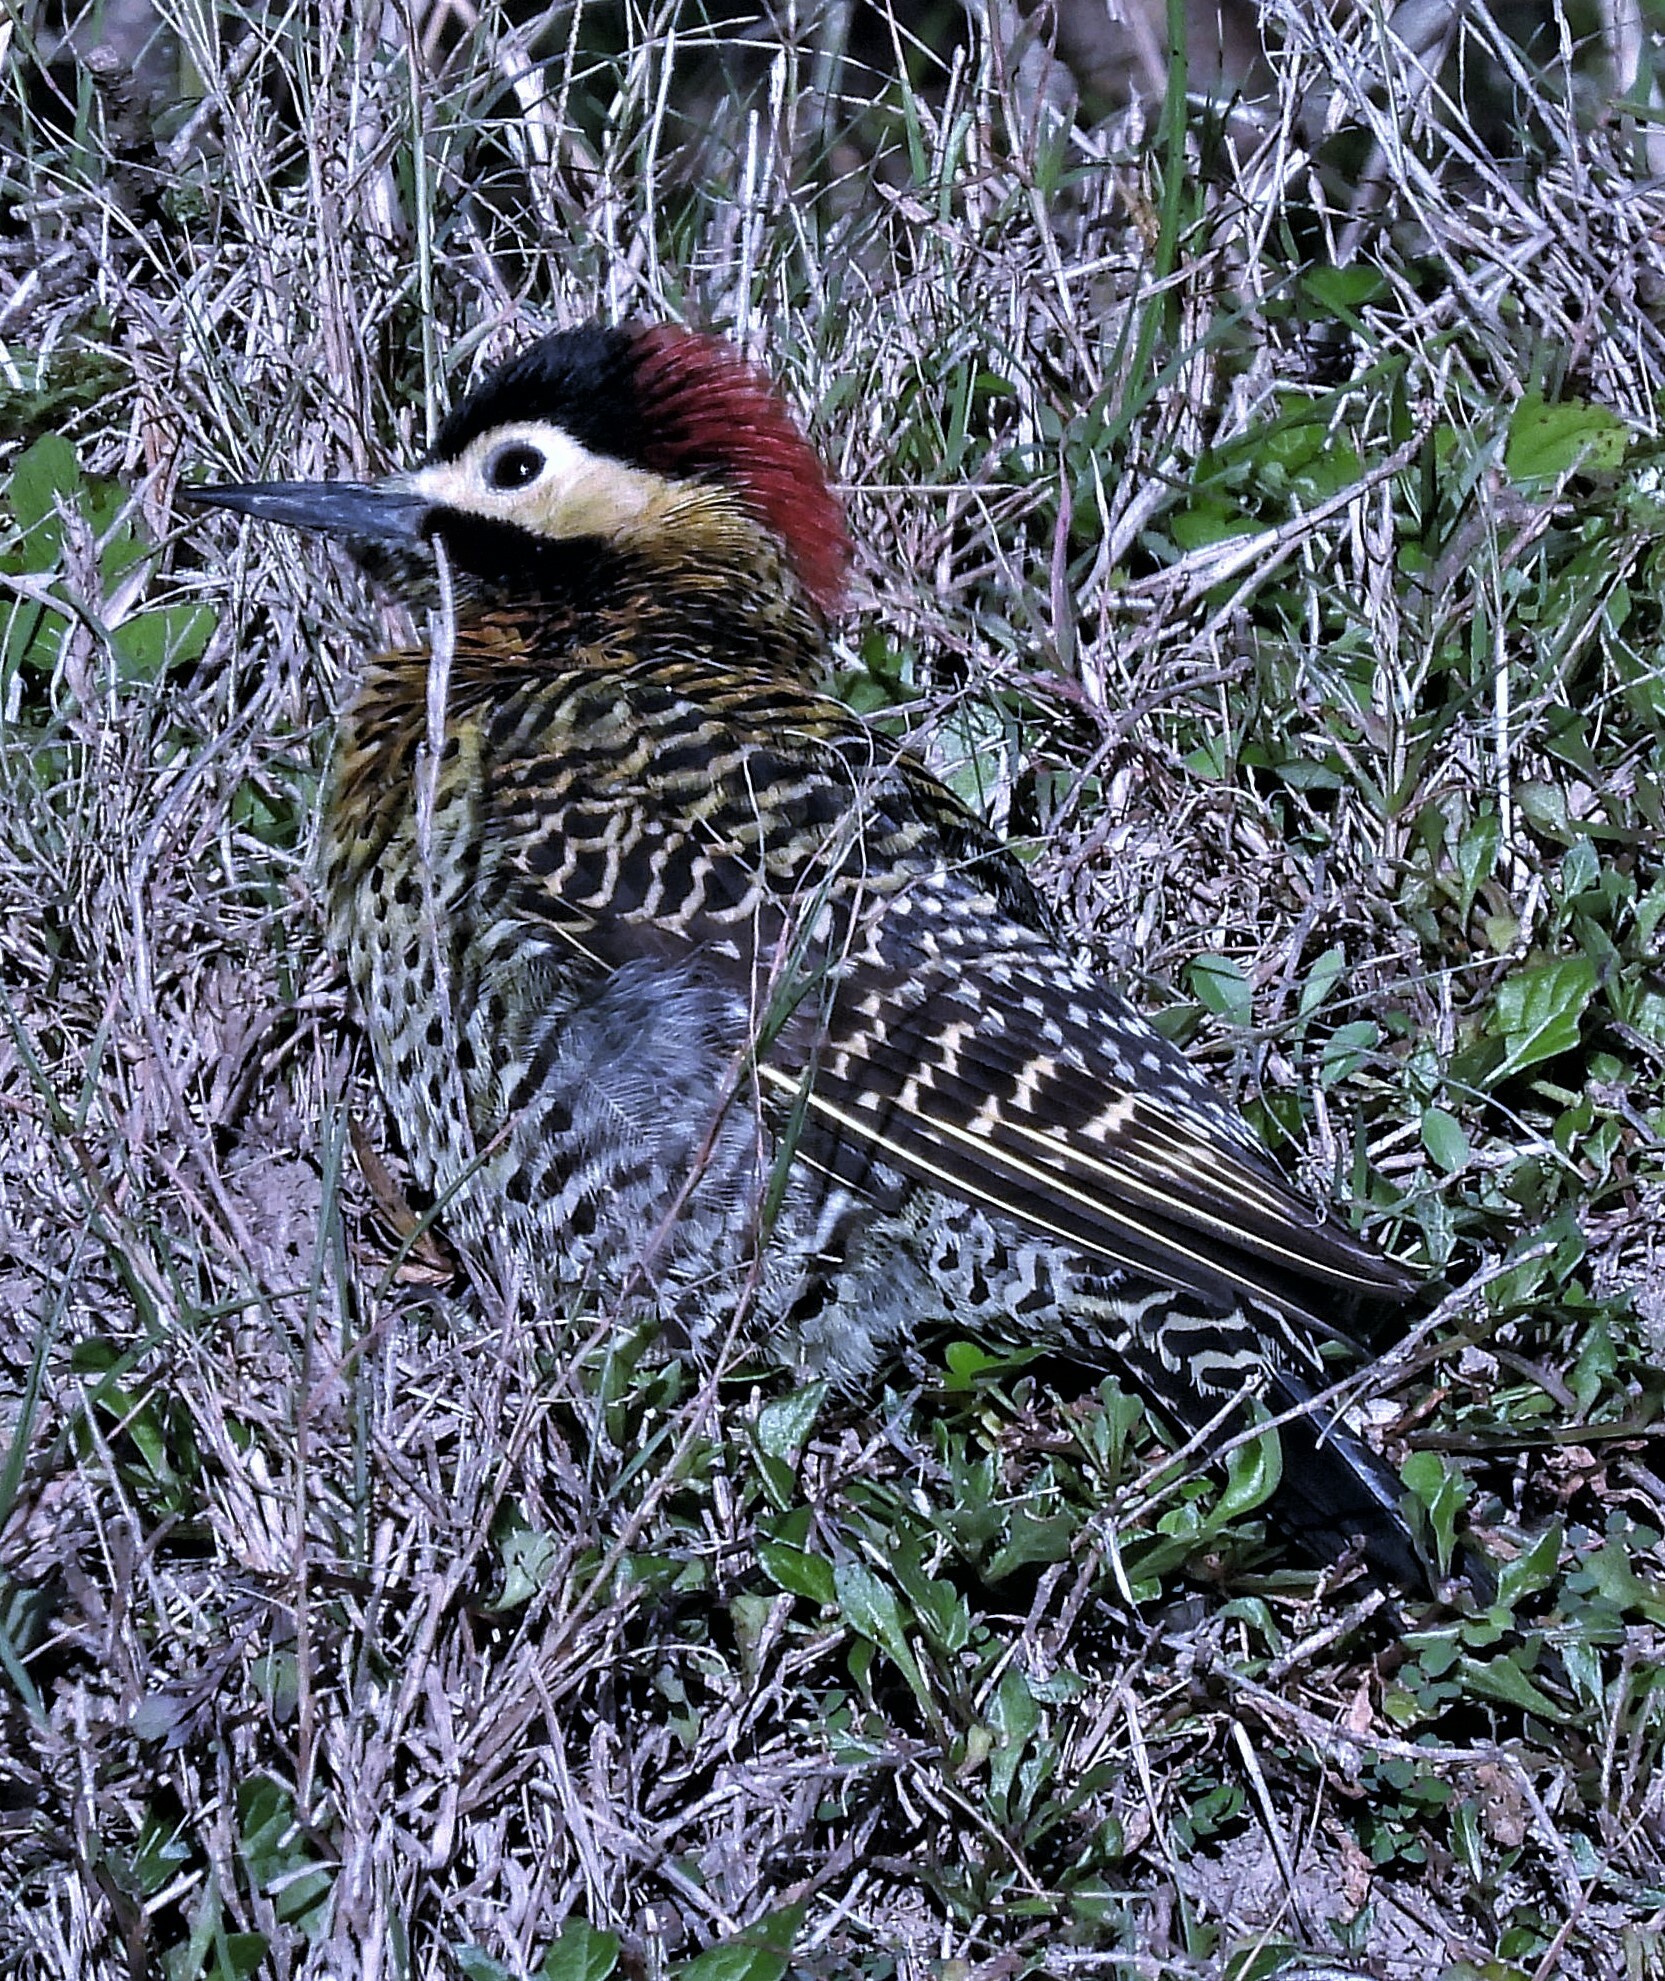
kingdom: Animalia
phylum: Chordata
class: Aves
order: Piciformes
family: Picidae
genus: Colaptes
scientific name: Colaptes melanochloros
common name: Green-barred woodpecker
